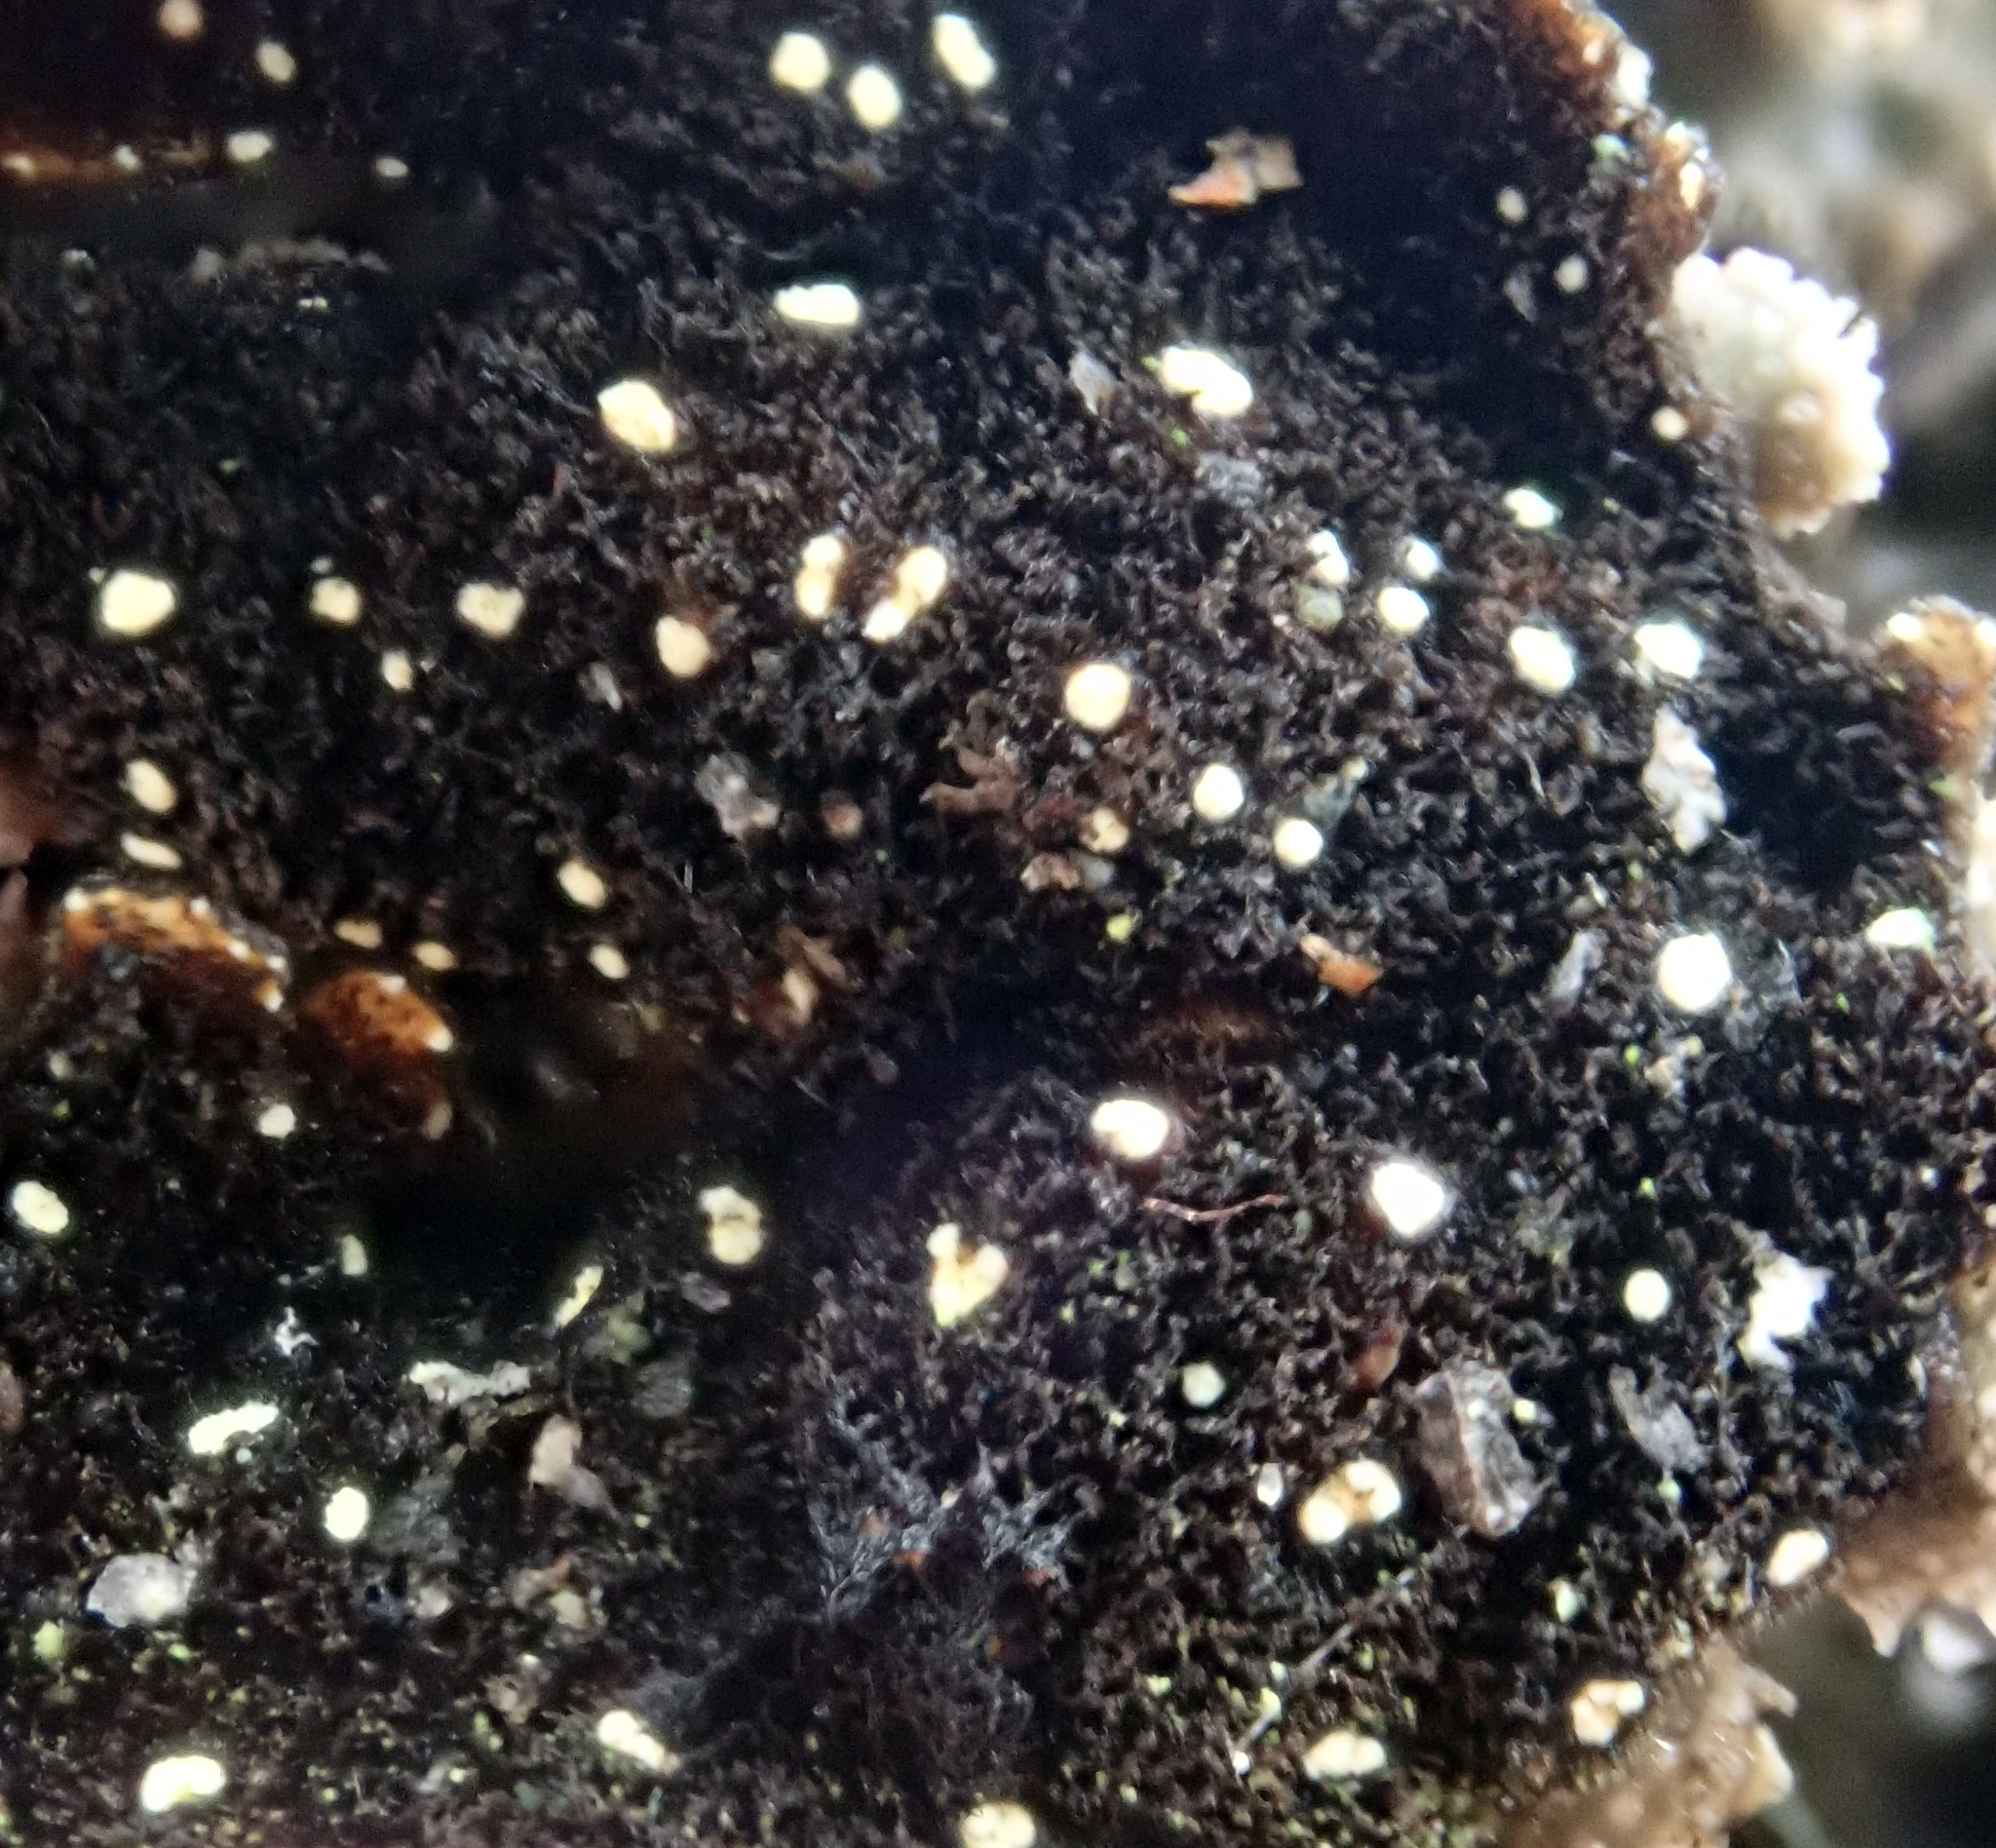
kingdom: Fungi
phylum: Ascomycota
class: Lecanoromycetes
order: Peltigerales
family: Lobariaceae
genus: Pseudocyphellaria
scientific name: Pseudocyphellaria crassa
